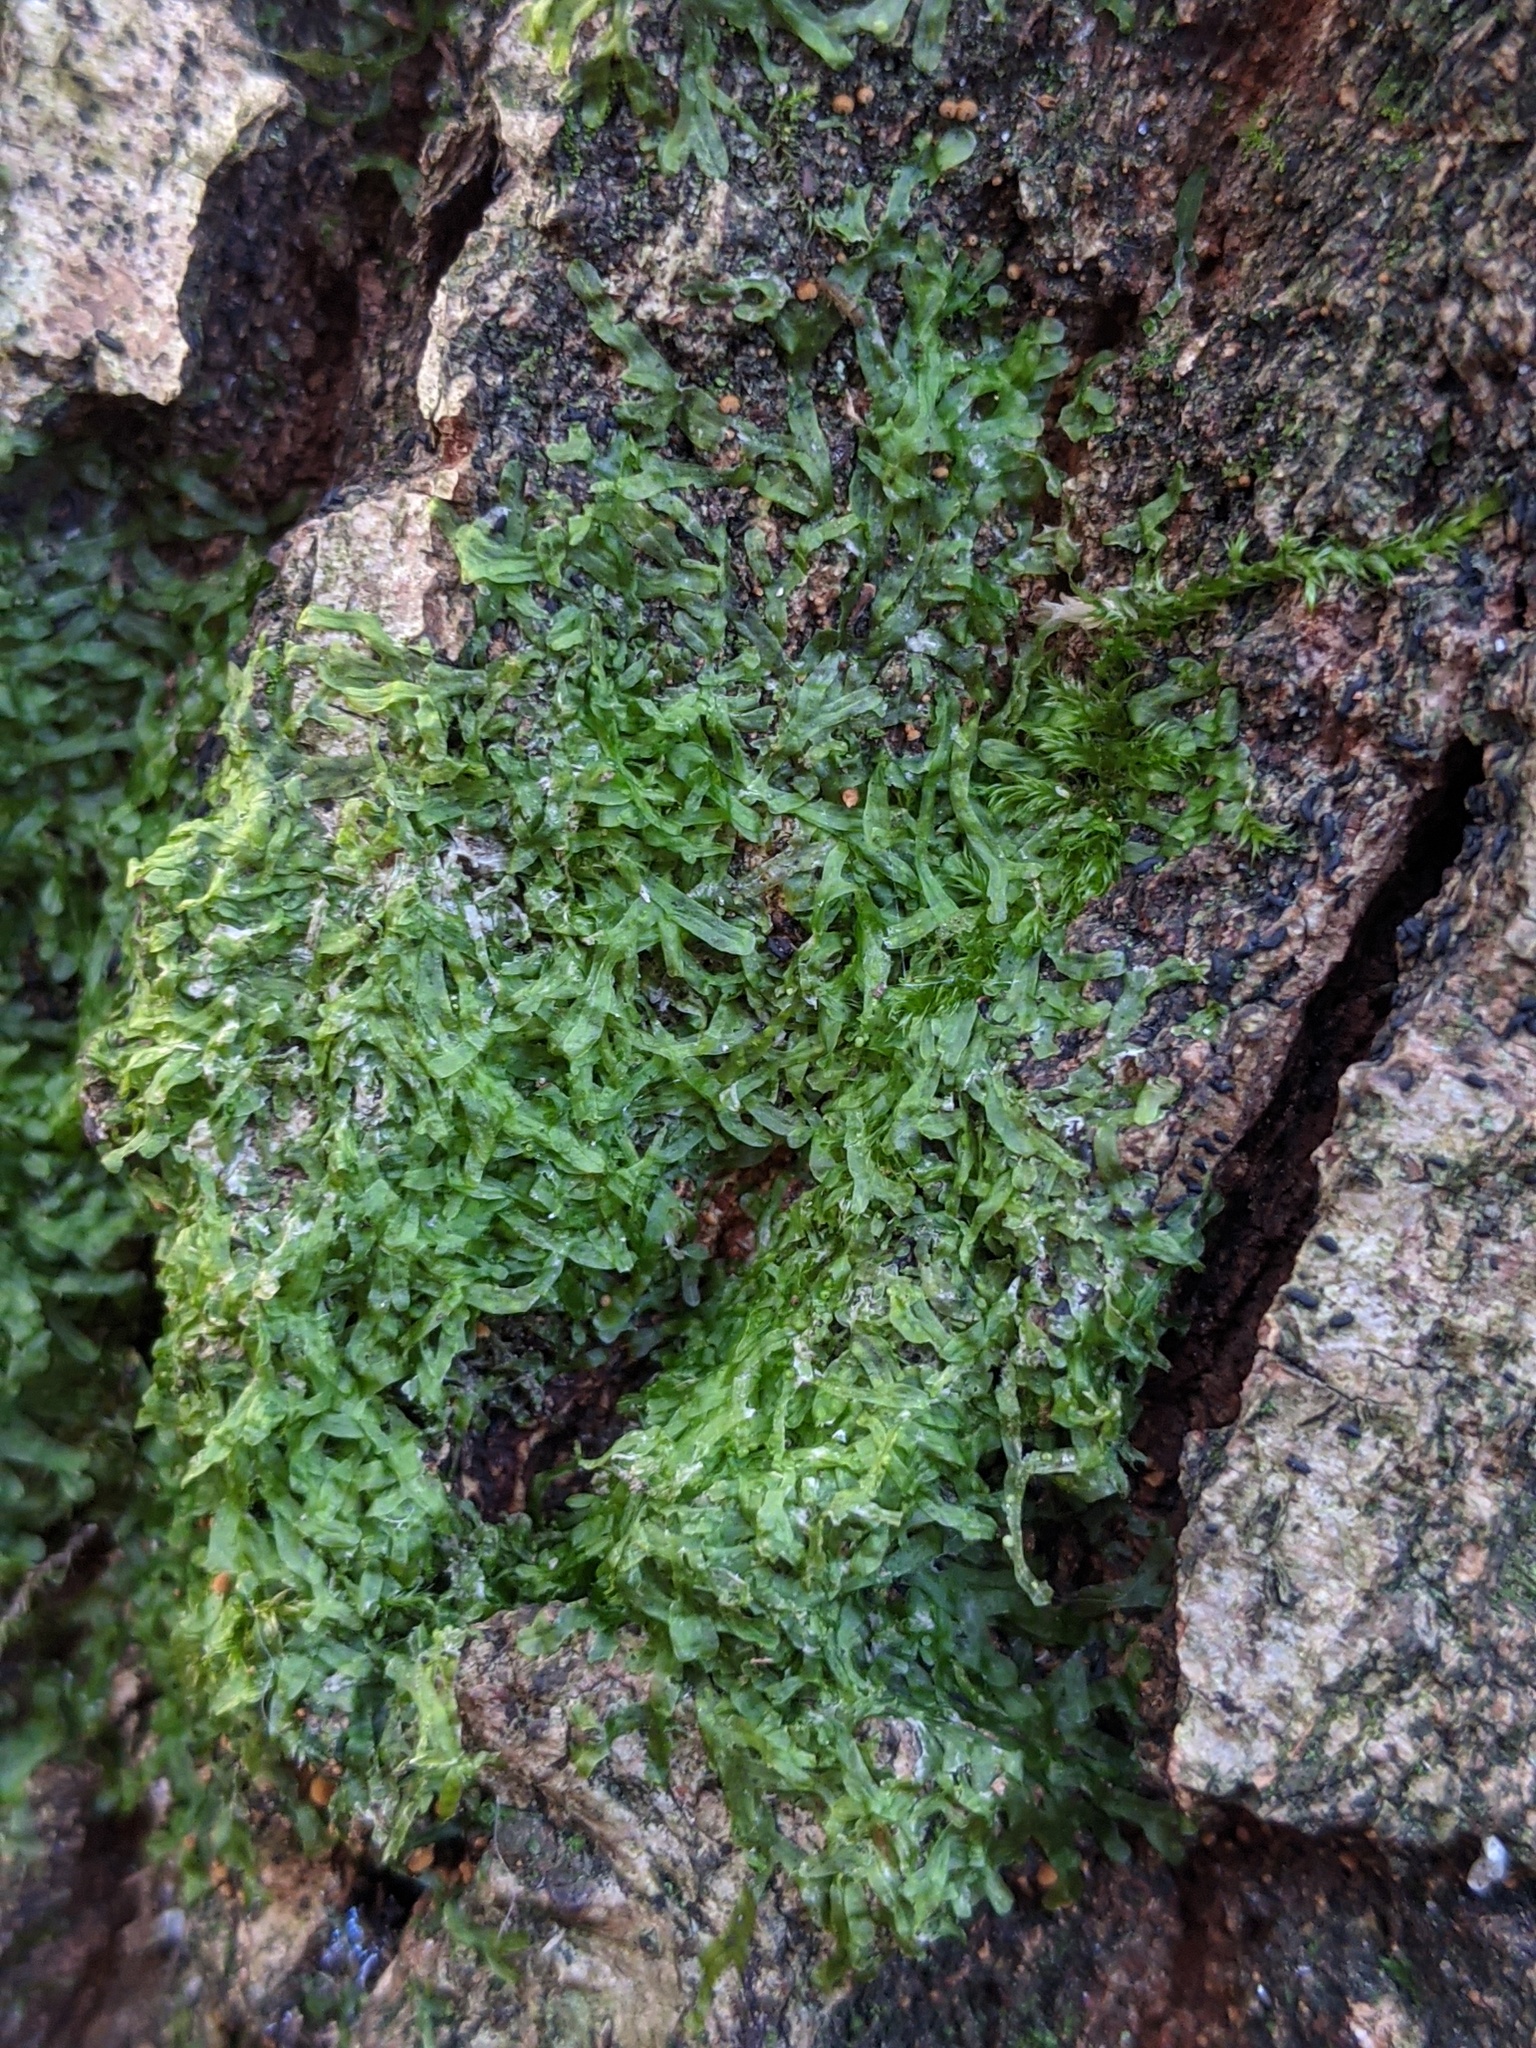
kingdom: Plantae
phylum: Marchantiophyta
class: Jungermanniopsida
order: Metzgeriales
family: Metzgeriaceae
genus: Metzgeria
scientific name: Metzgeria furcata
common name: Forked veilwort
